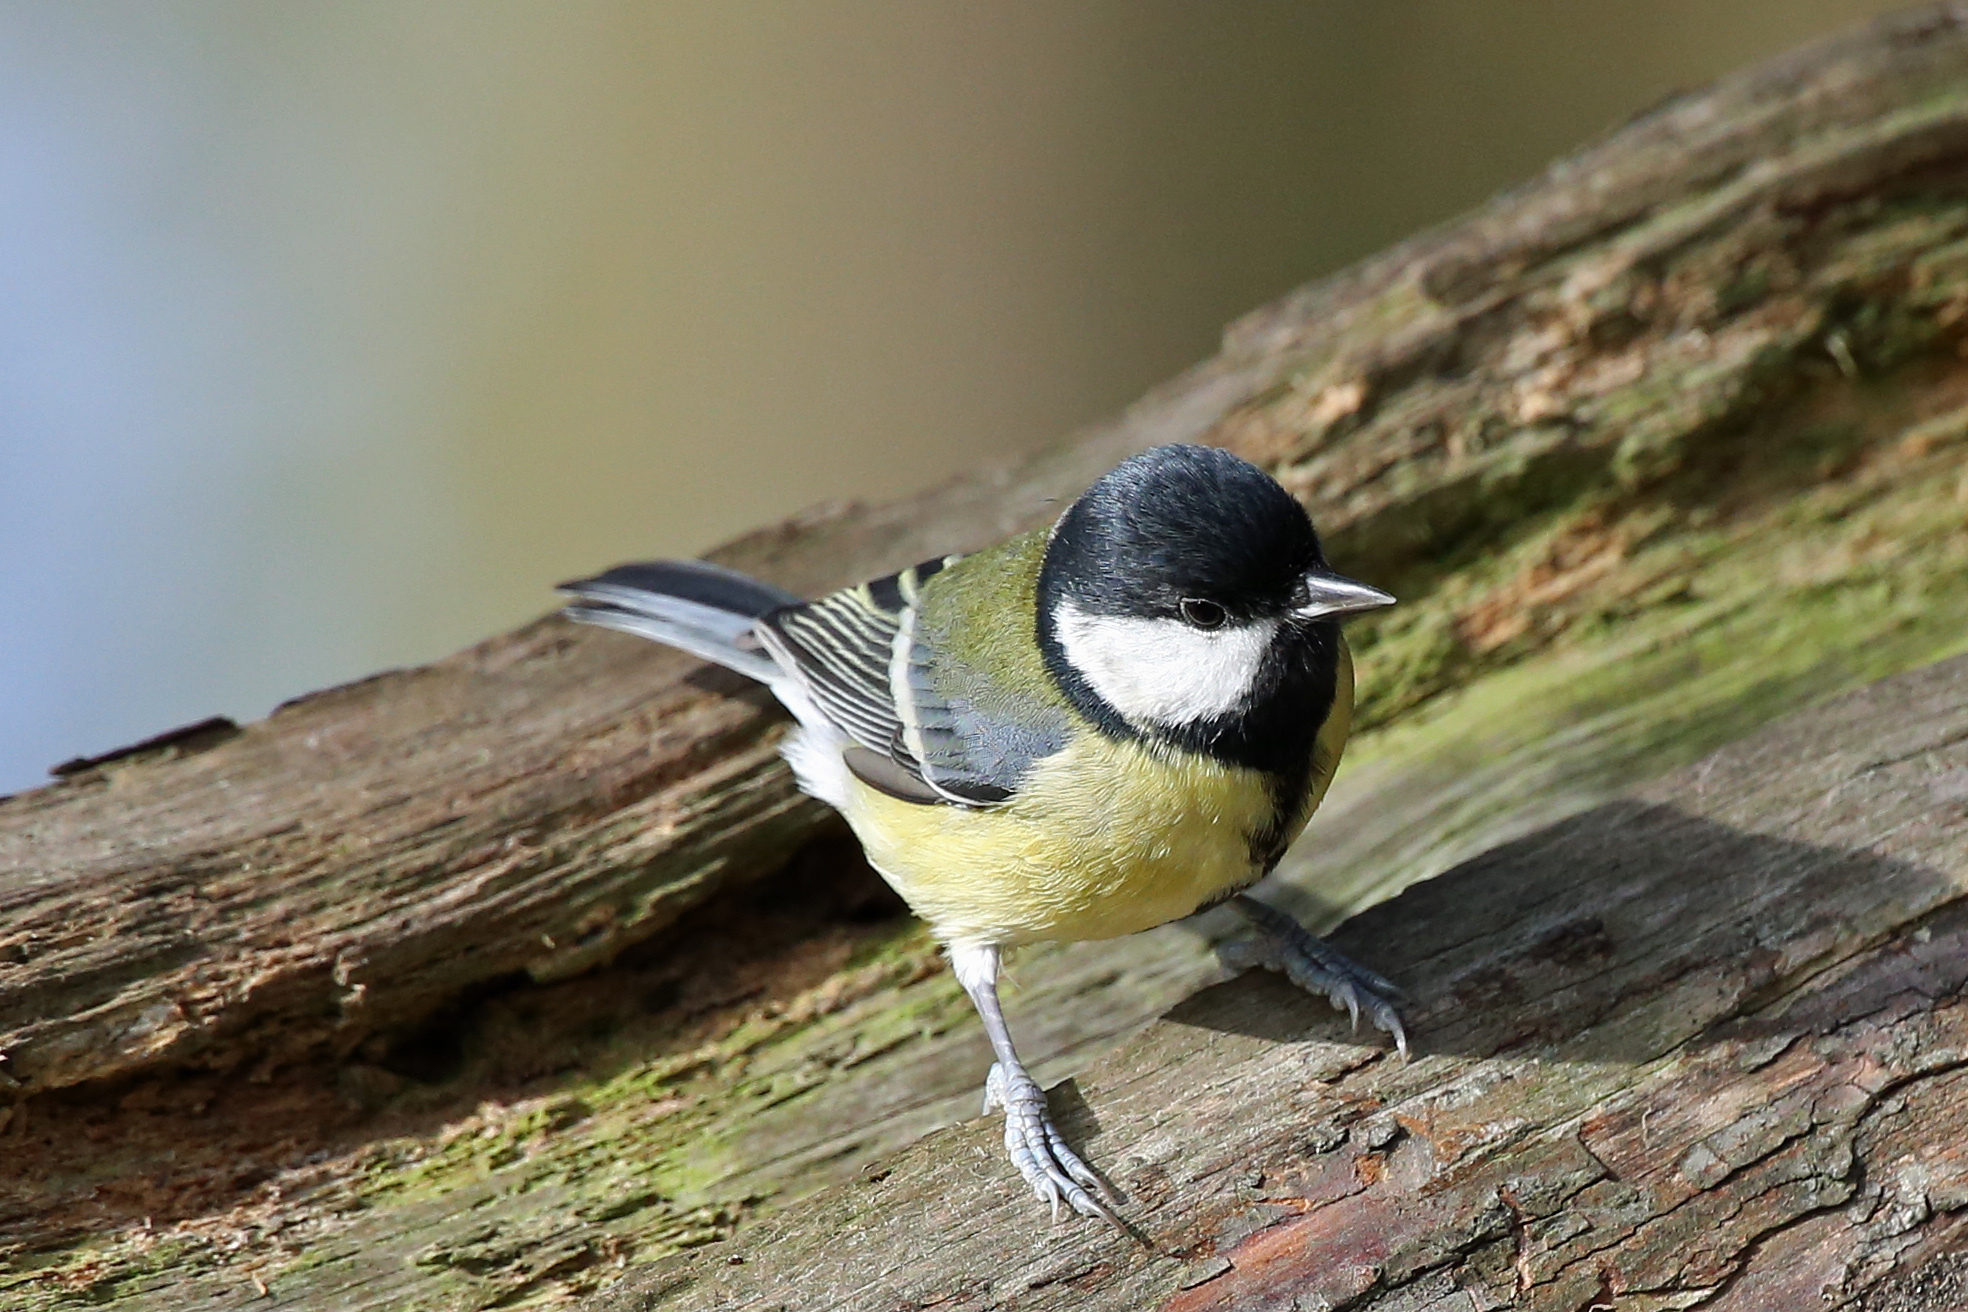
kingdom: Animalia
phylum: Chordata
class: Aves
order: Passeriformes
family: Paridae
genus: Parus
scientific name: Parus major
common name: Great tit
